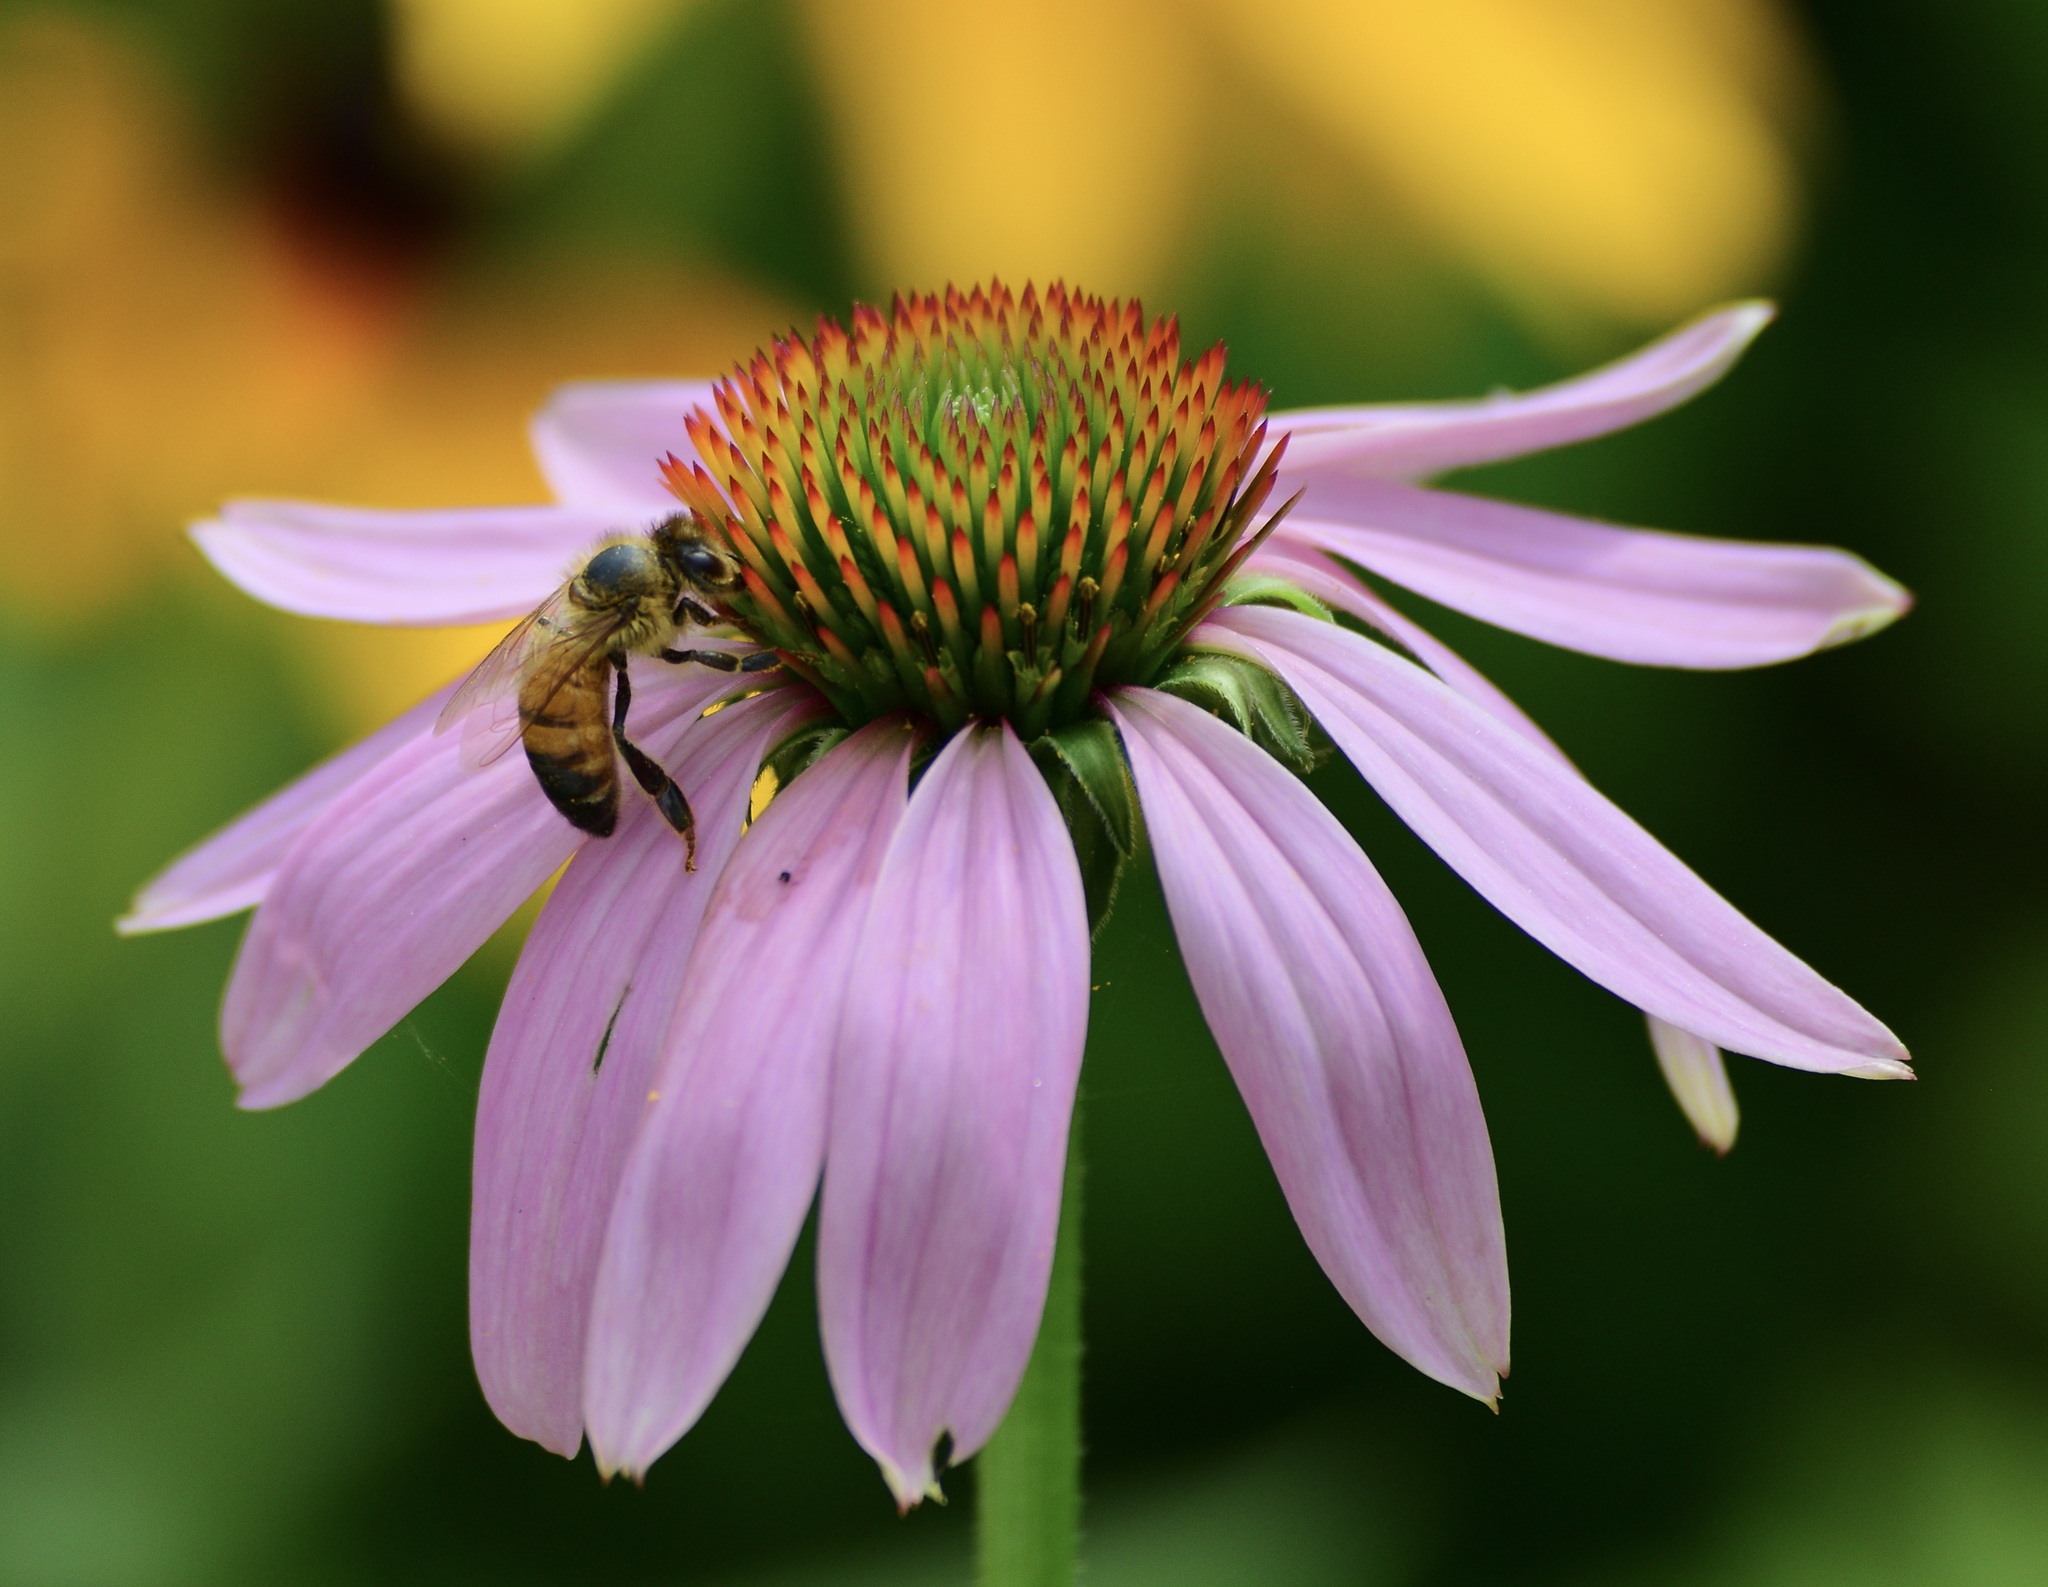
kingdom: Animalia
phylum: Arthropoda
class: Insecta
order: Hymenoptera
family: Apidae
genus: Apis
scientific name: Apis mellifera
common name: Honey bee
